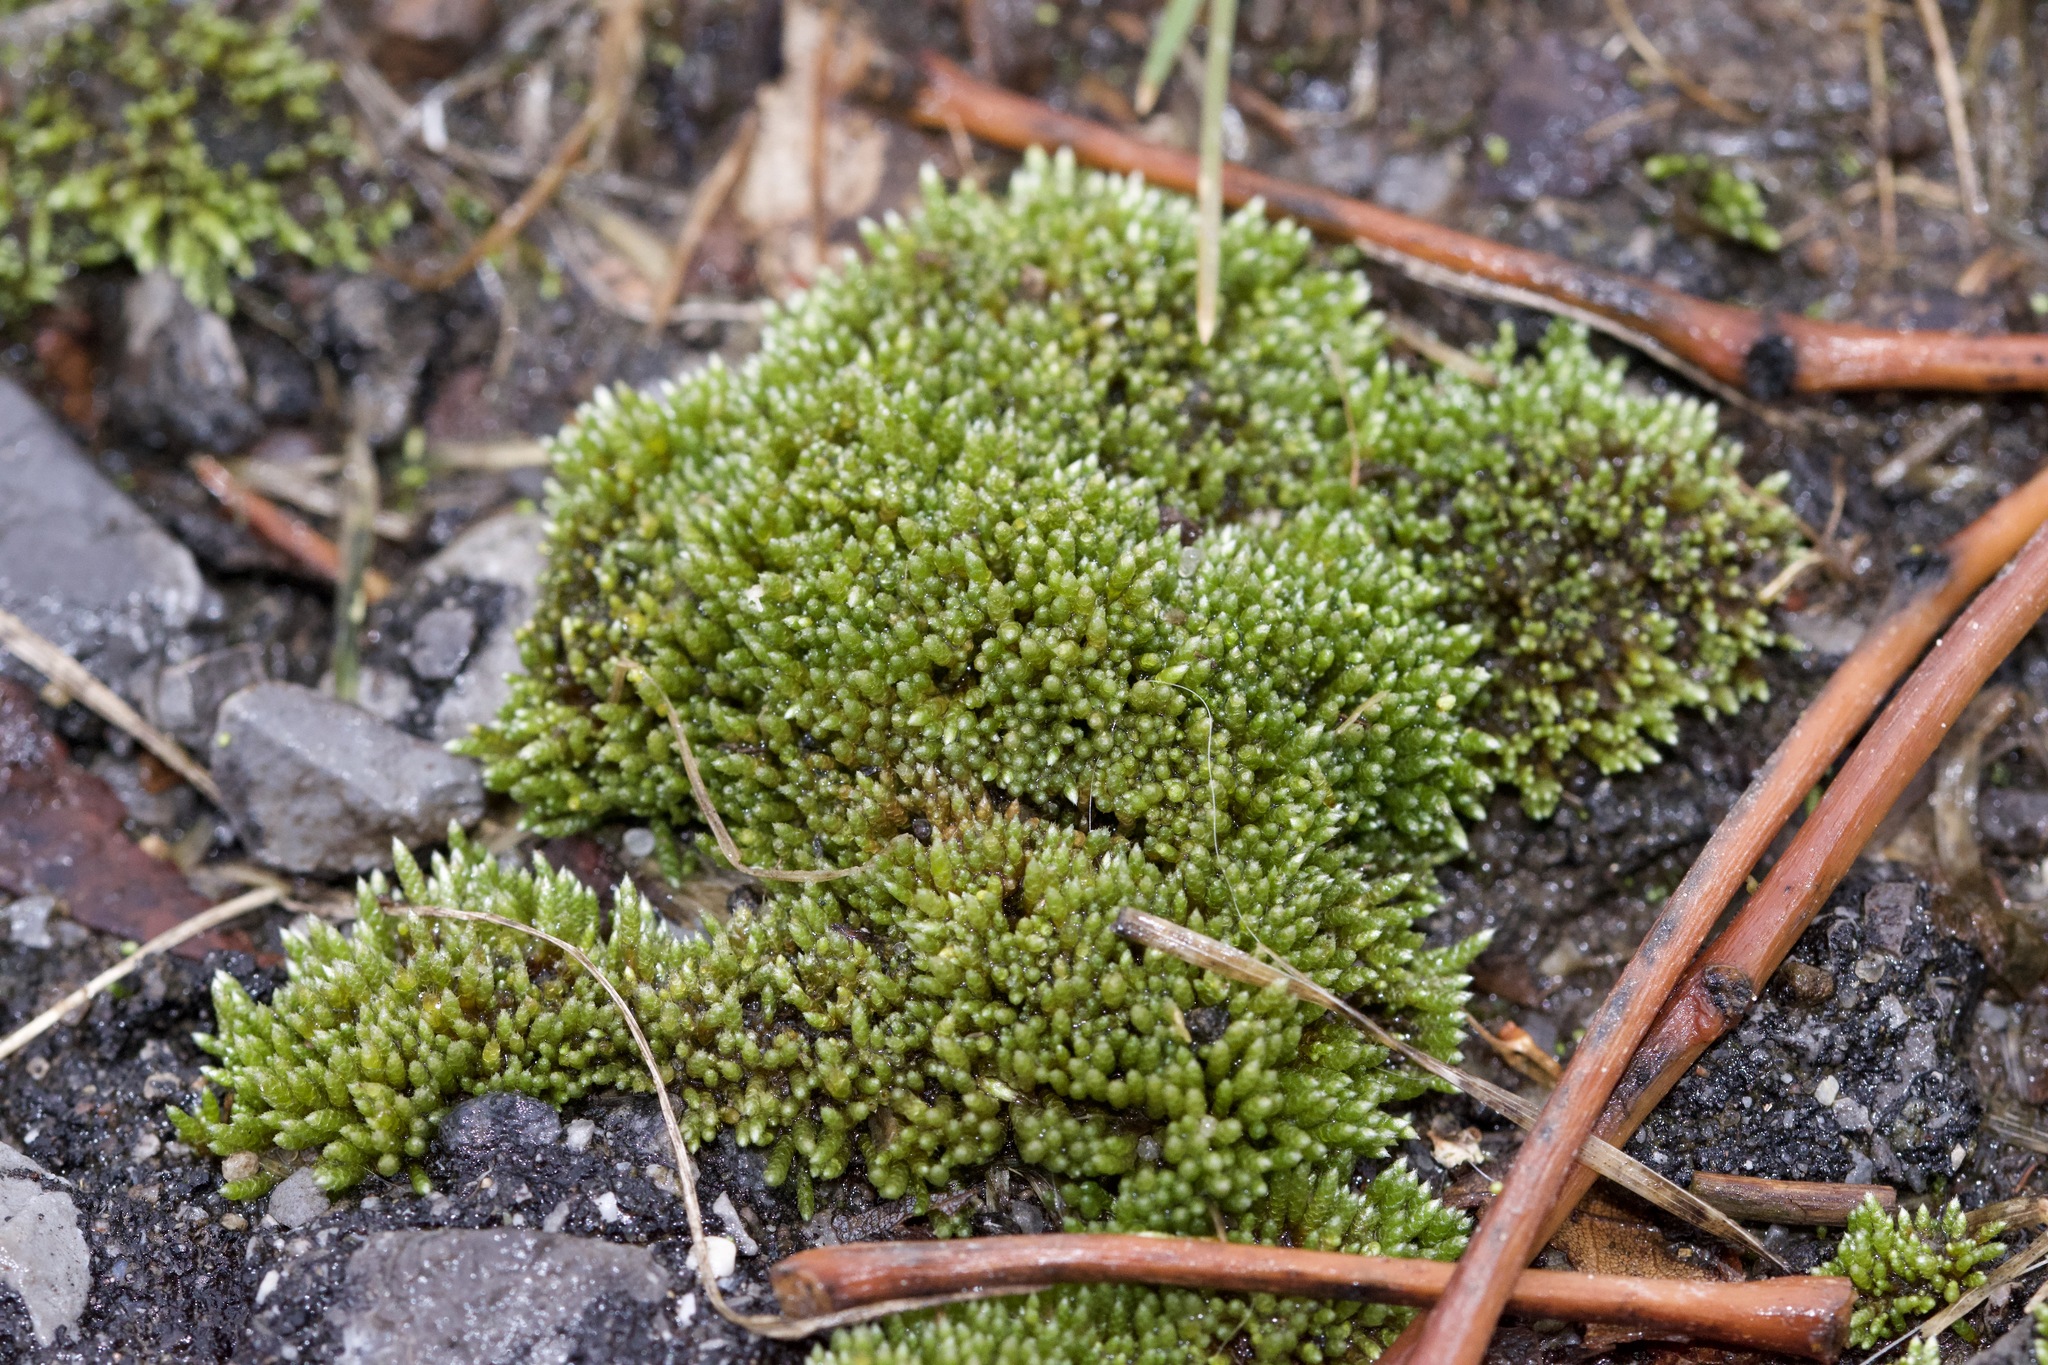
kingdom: Plantae
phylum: Bryophyta
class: Bryopsida
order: Bryales
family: Bryaceae
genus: Bryum
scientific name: Bryum argenteum
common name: Silver-moss
